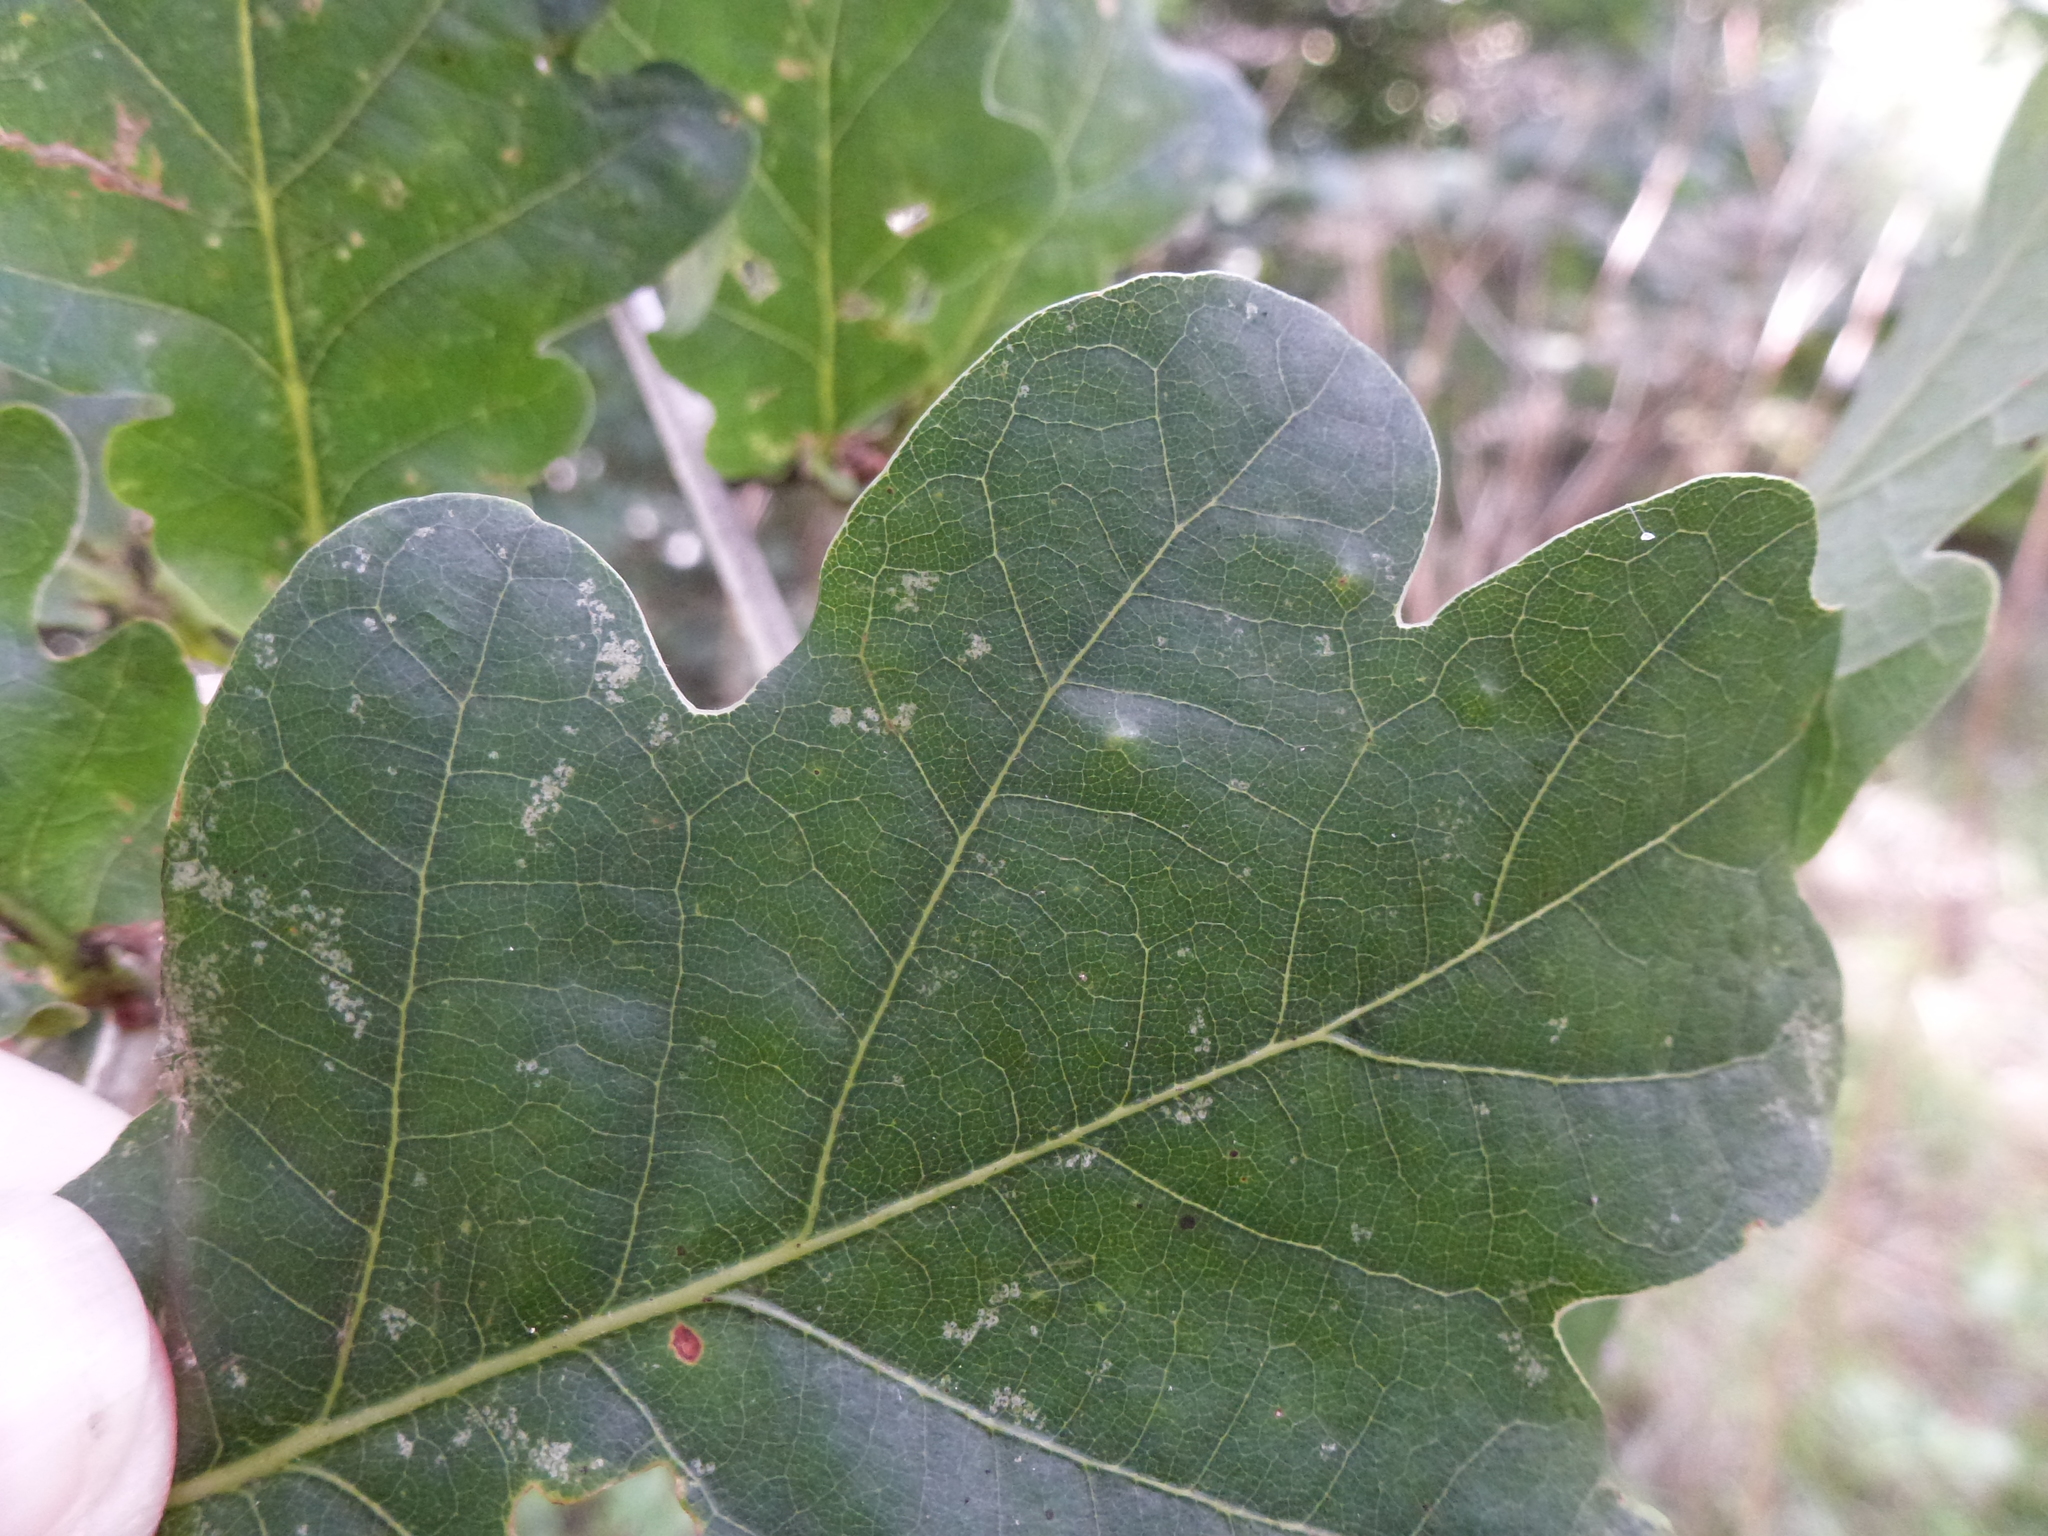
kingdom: Animalia
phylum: Arthropoda
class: Insecta
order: Hemiptera
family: Triozidae
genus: Trioza
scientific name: Trioza remota
